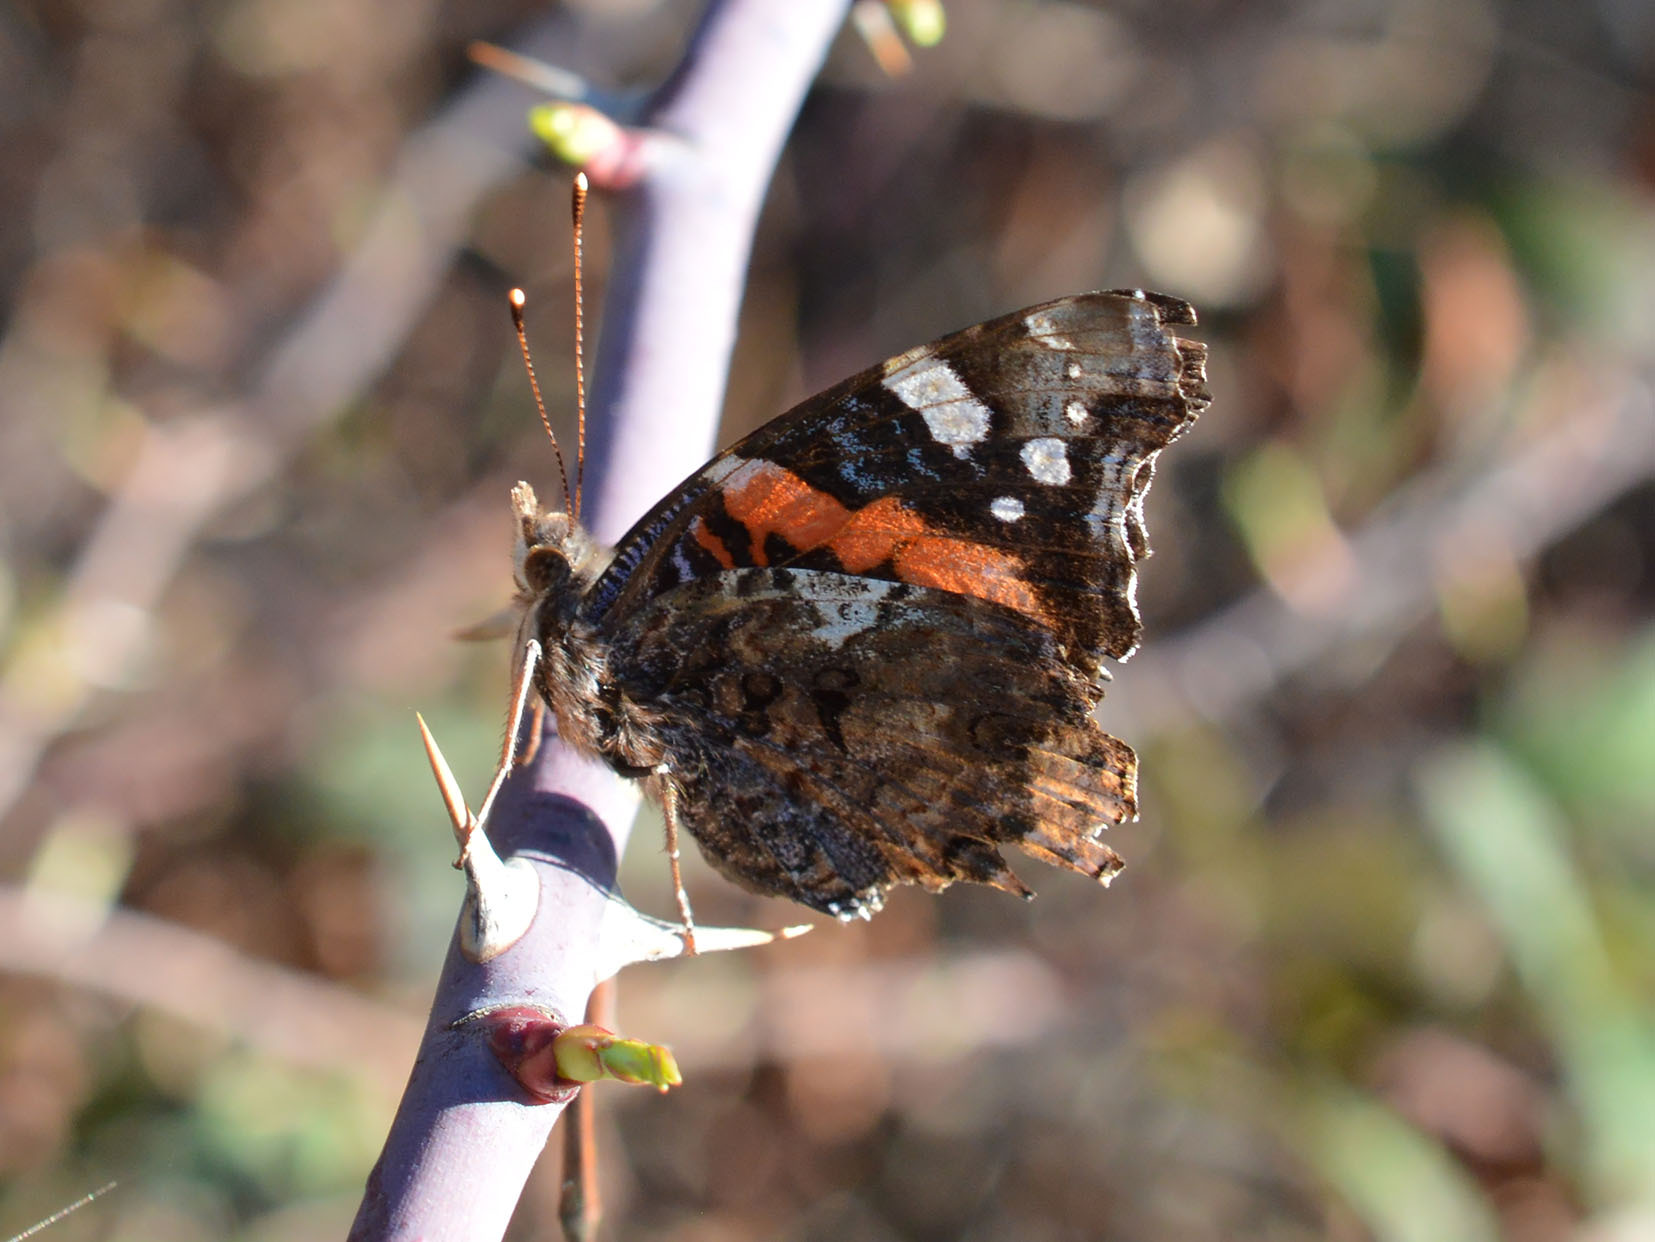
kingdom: Animalia
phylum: Arthropoda
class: Insecta
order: Lepidoptera
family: Nymphalidae
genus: Vanessa
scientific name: Vanessa atalanta
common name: Red admiral
